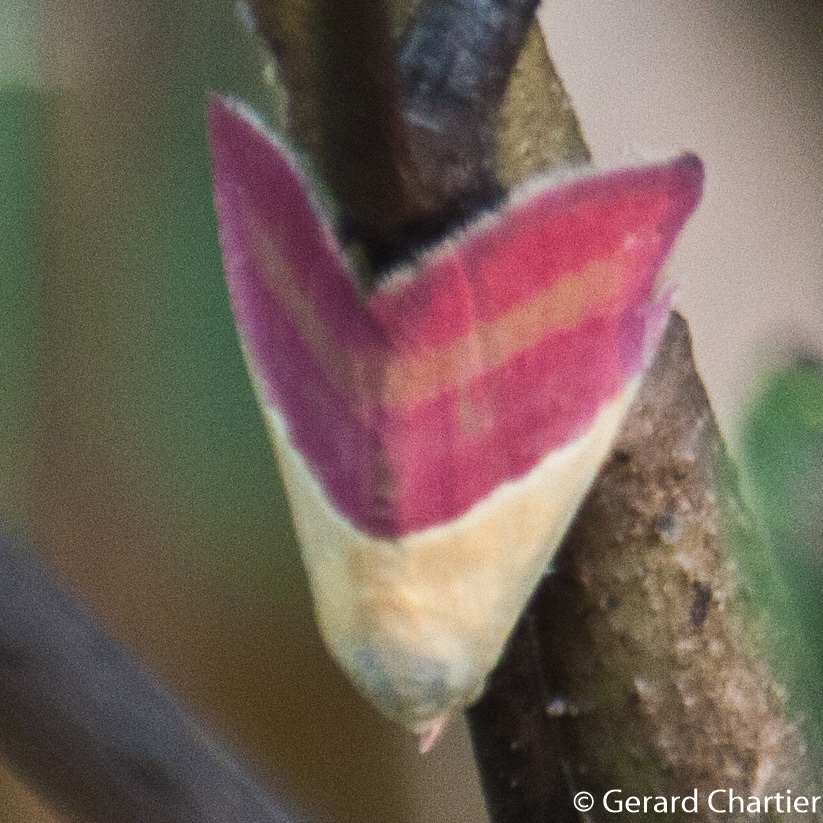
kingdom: Animalia
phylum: Arthropoda
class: Insecta
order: Lepidoptera
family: Noctuidae
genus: Eublemma
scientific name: Eublemma dimidialis
